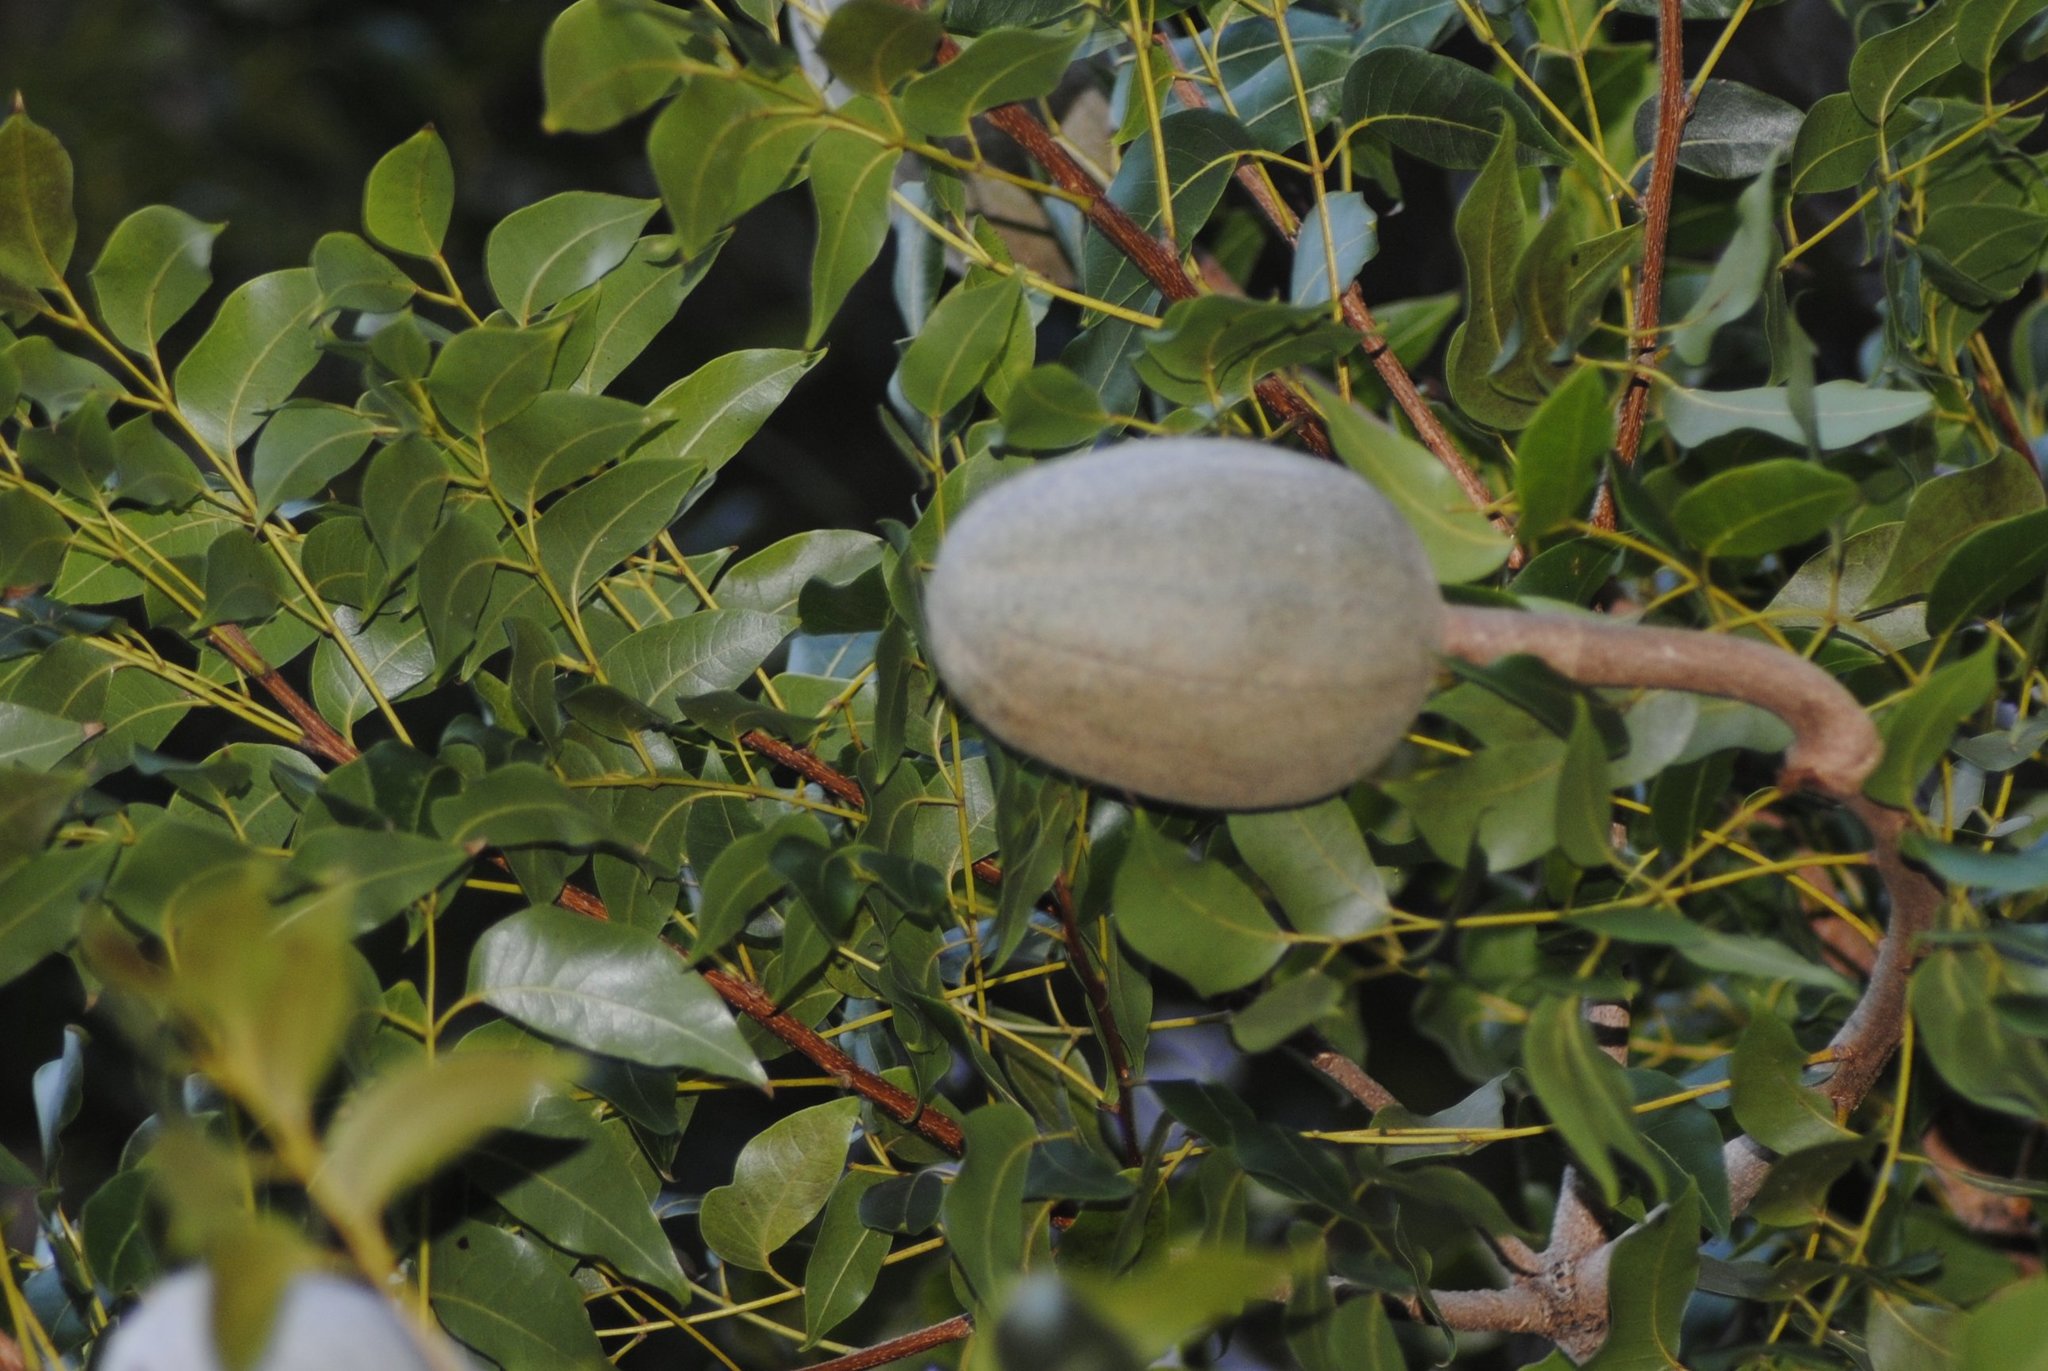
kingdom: Plantae
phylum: Tracheophyta
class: Magnoliopsida
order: Sapindales
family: Meliaceae
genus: Swietenia
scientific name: Swietenia mahagoni
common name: West indian mahogany
